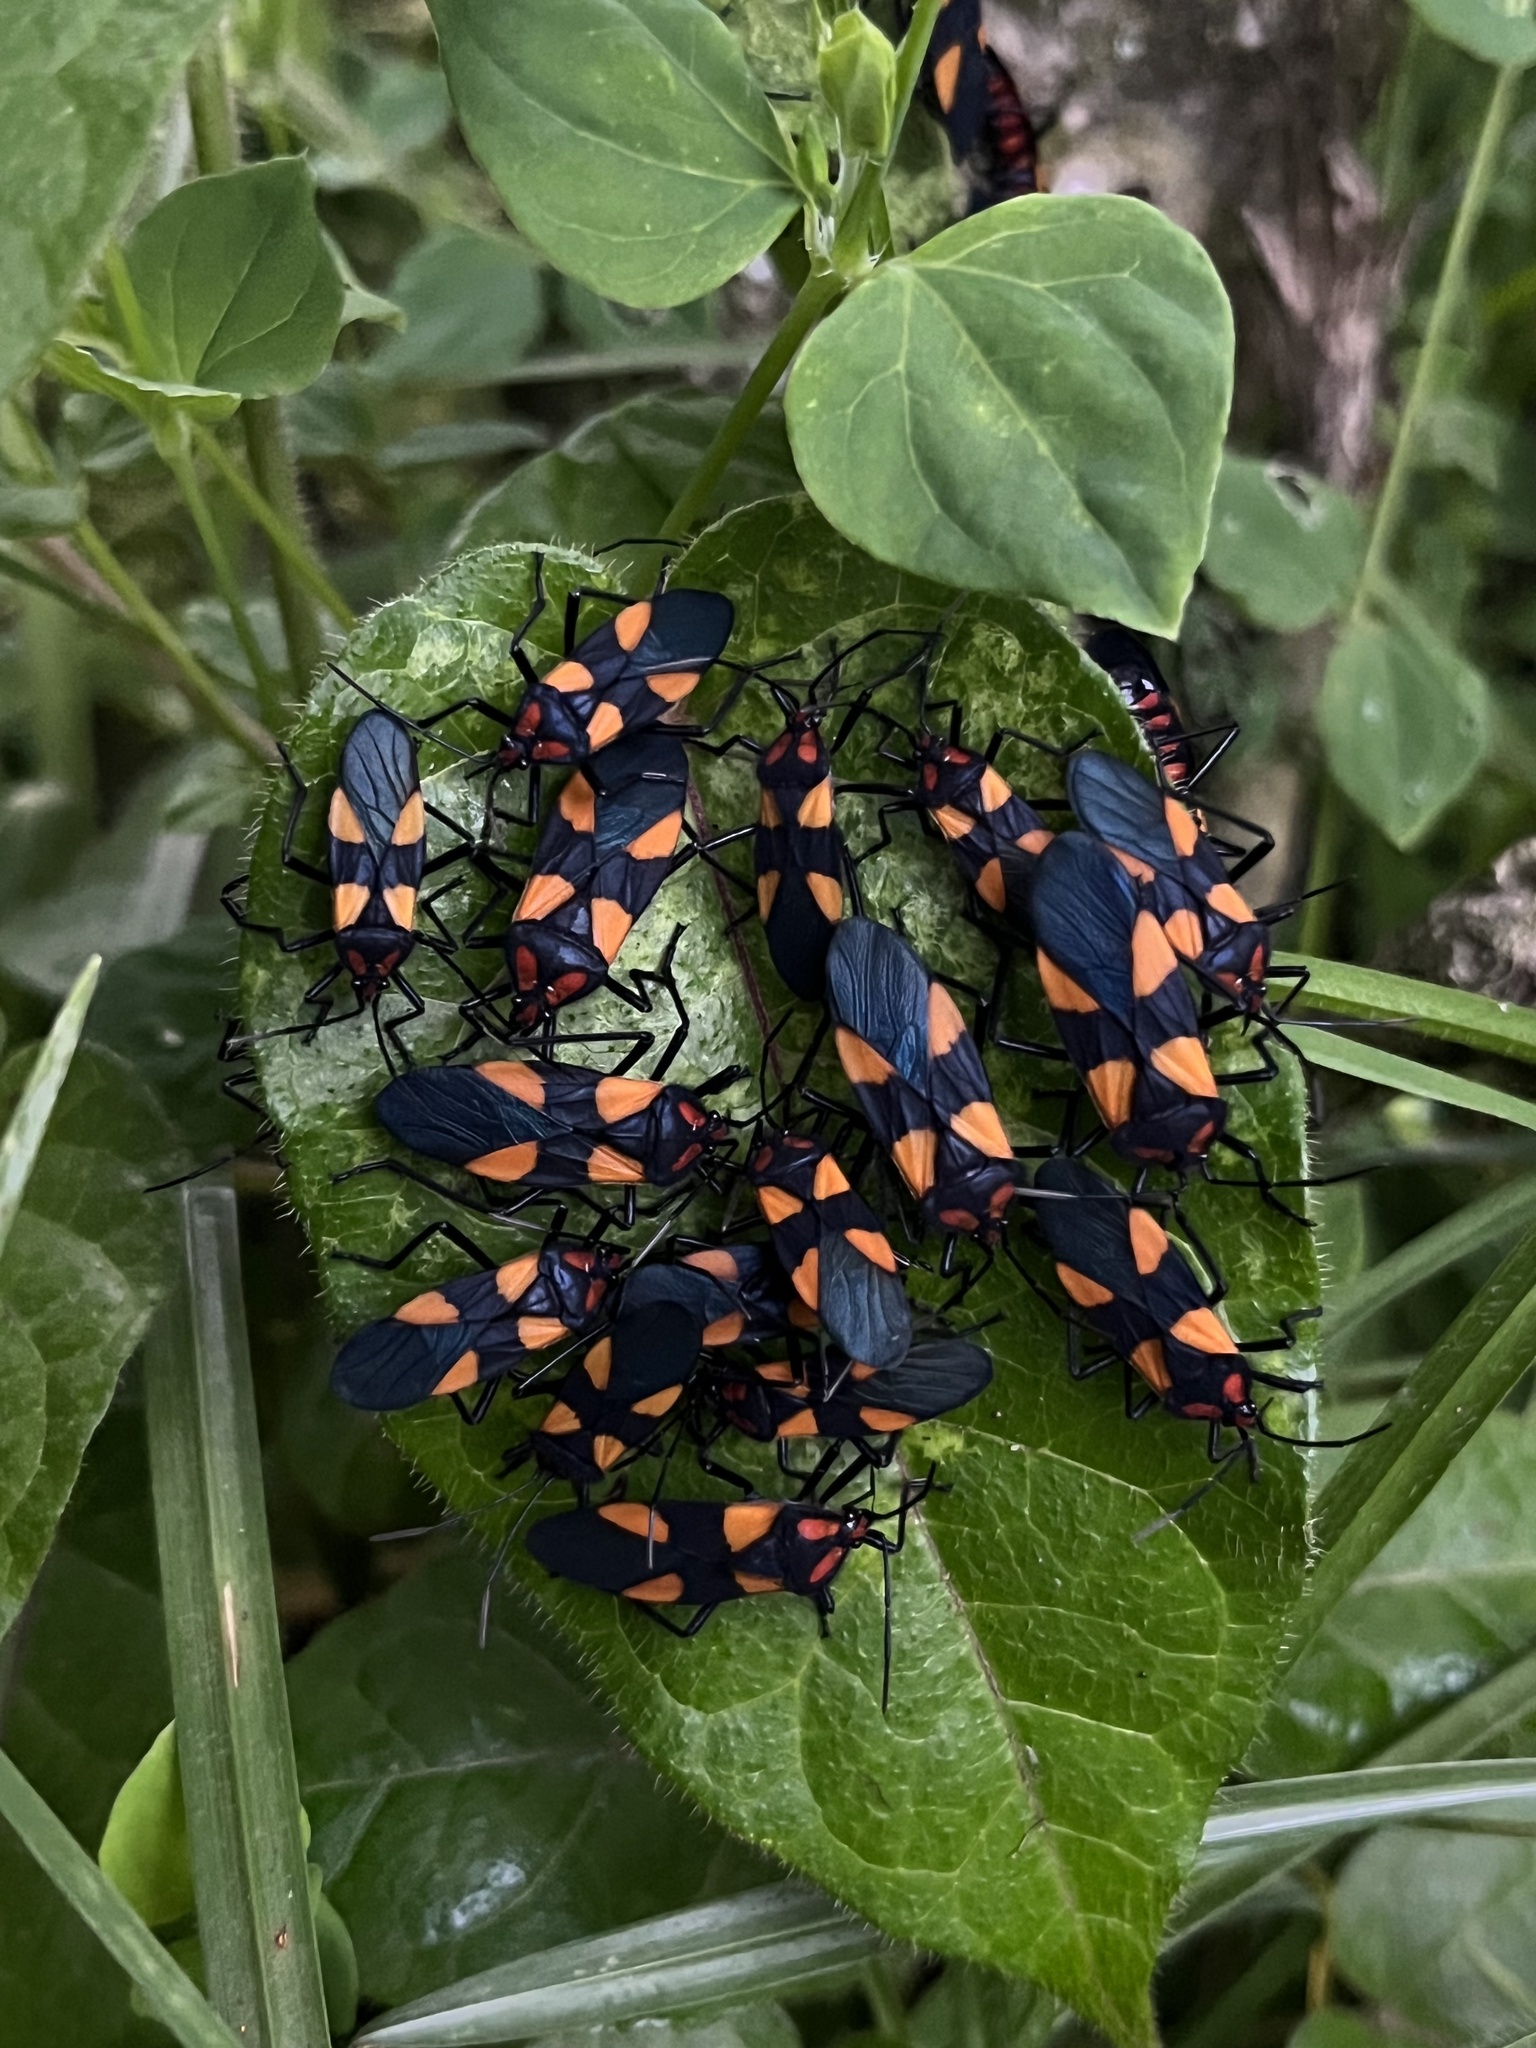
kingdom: Animalia
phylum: Arthropoda
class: Insecta
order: Hemiptera
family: Lygaeidae
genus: Oncopeltus
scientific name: Oncopeltus varicolor
